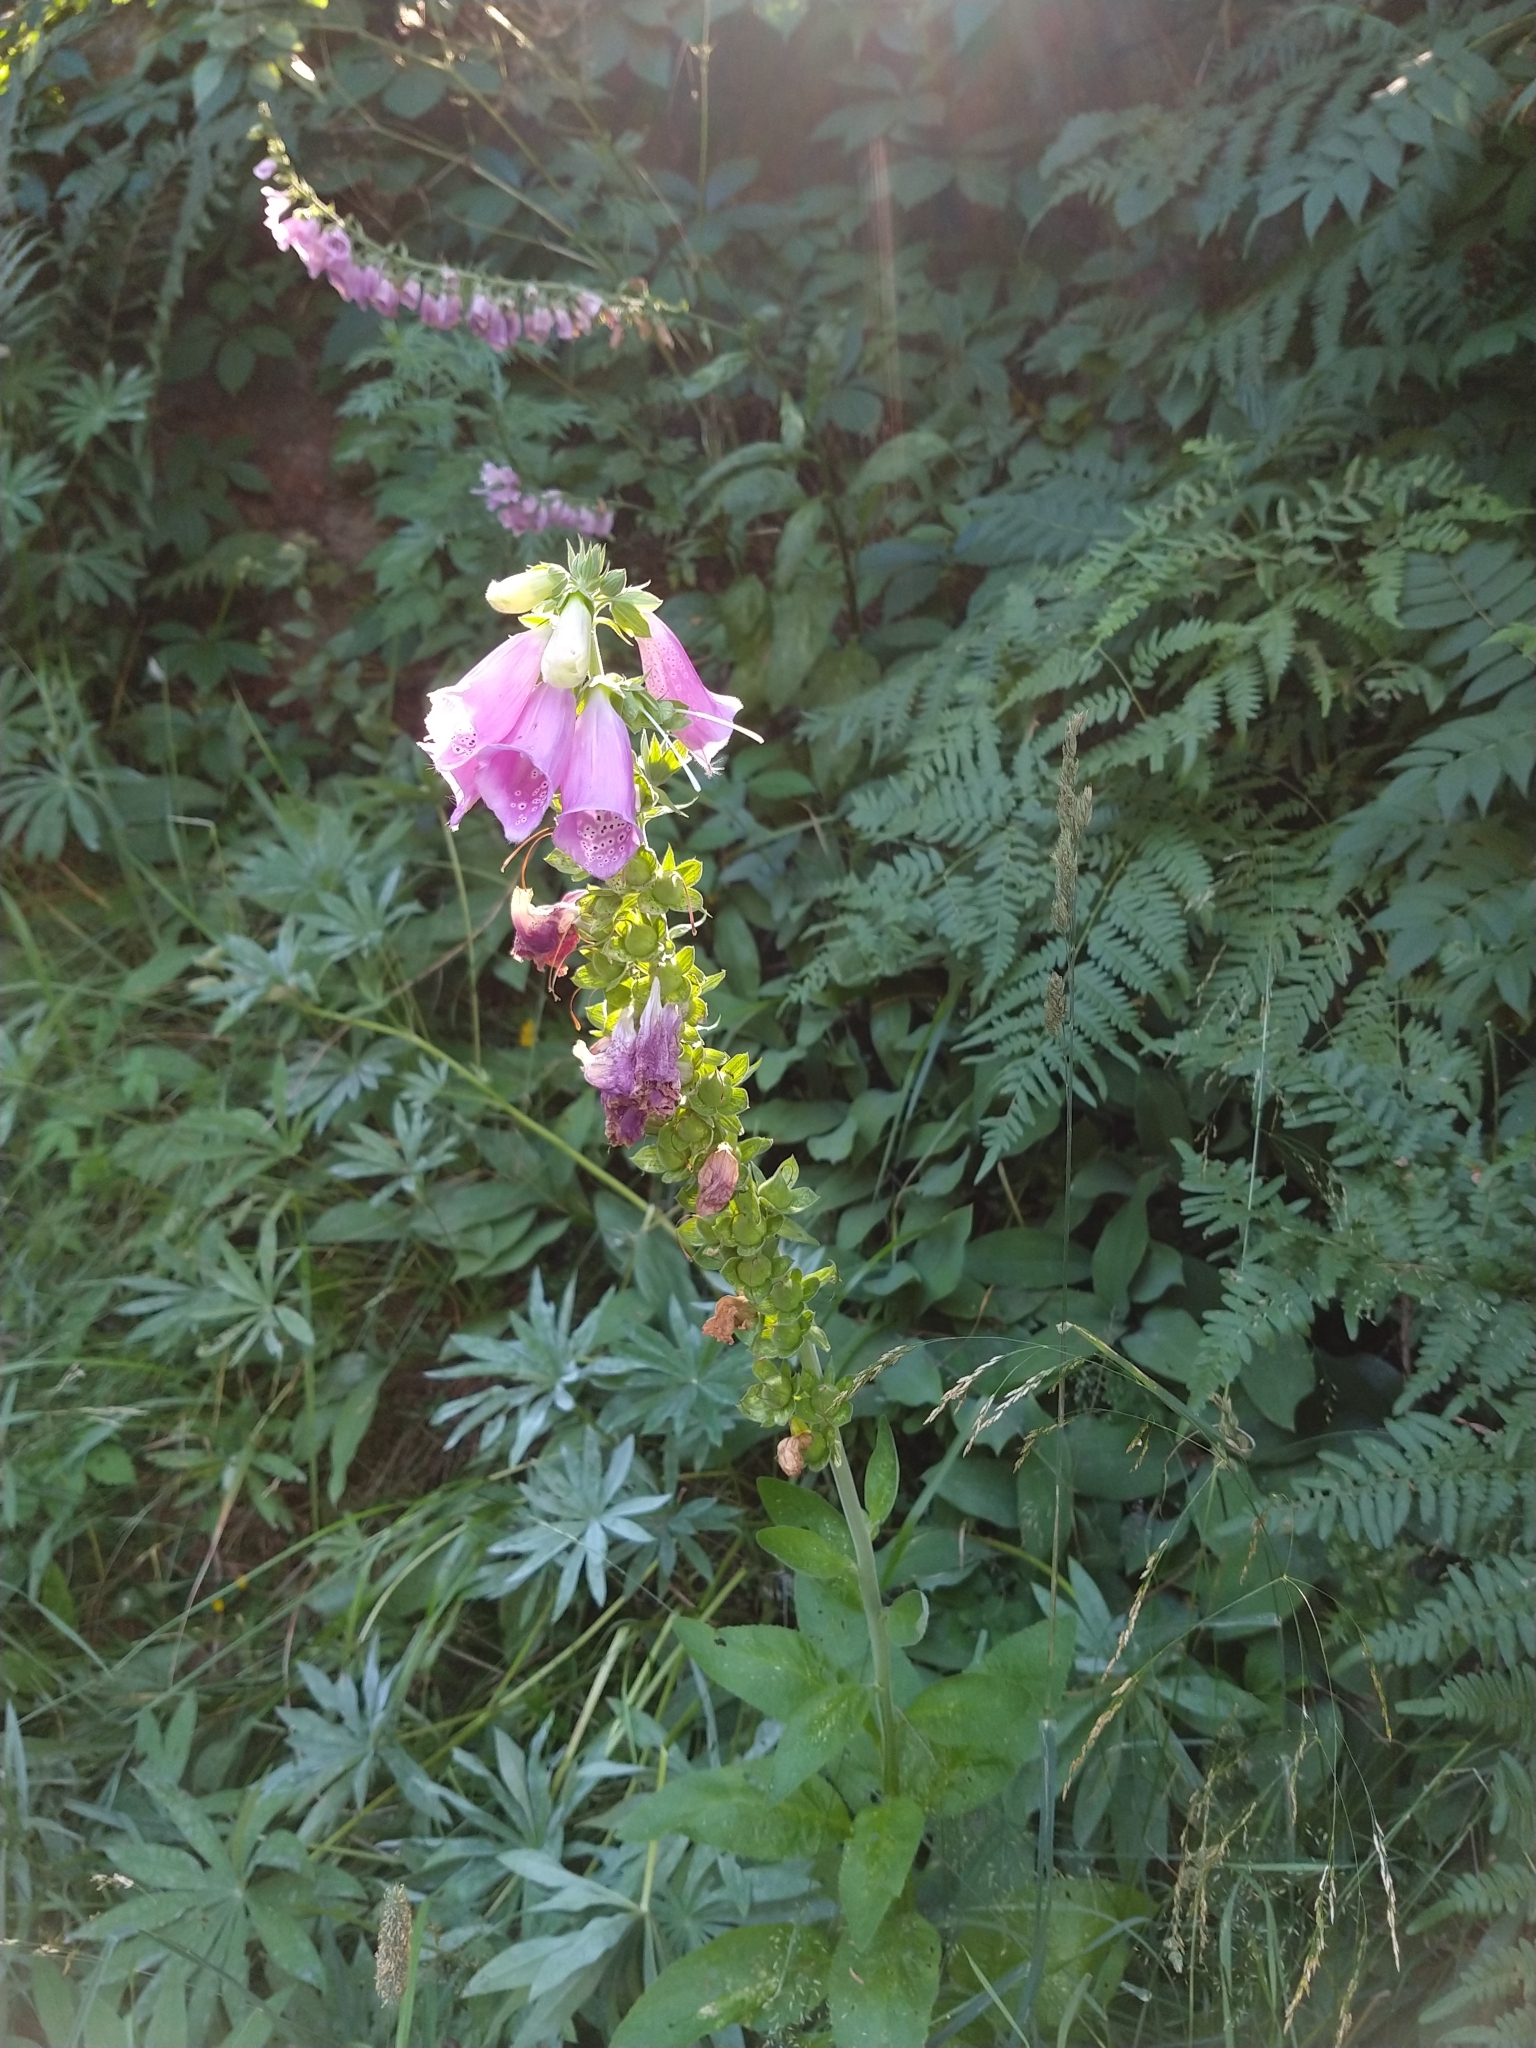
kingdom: Plantae
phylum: Tracheophyta
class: Magnoliopsida
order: Lamiales
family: Plantaginaceae
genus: Digitalis
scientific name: Digitalis purpurea
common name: Foxglove
